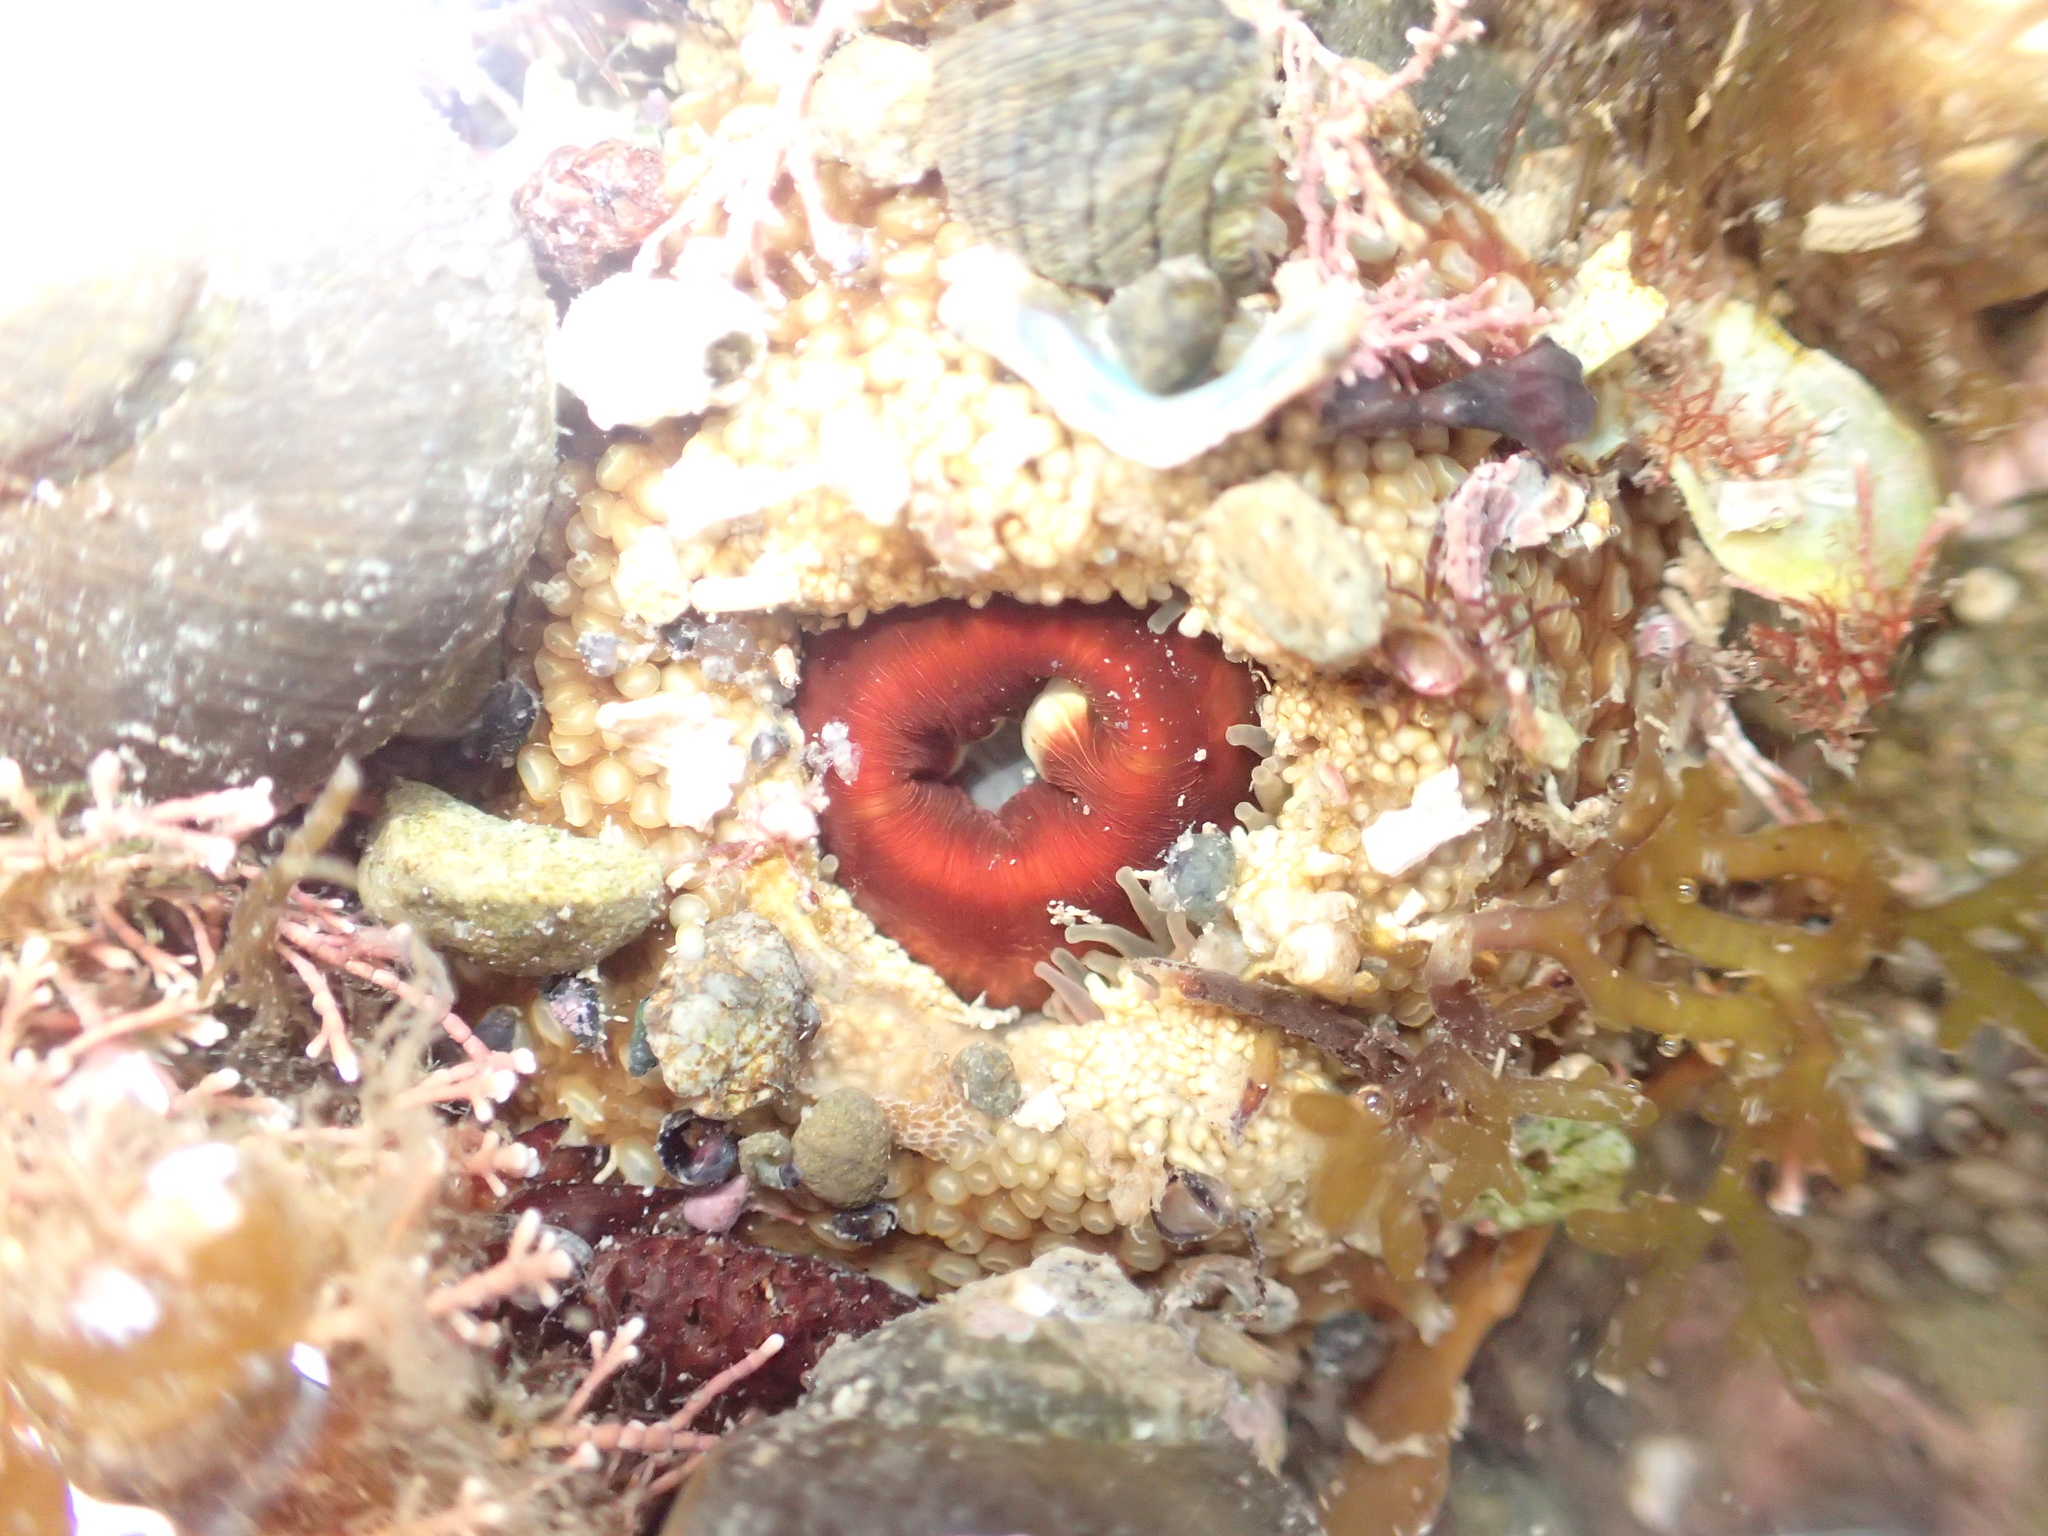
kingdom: Animalia
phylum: Cnidaria
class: Anthozoa
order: Actiniaria
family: Actiniidae
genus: Oulactis
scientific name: Oulactis muscosa
